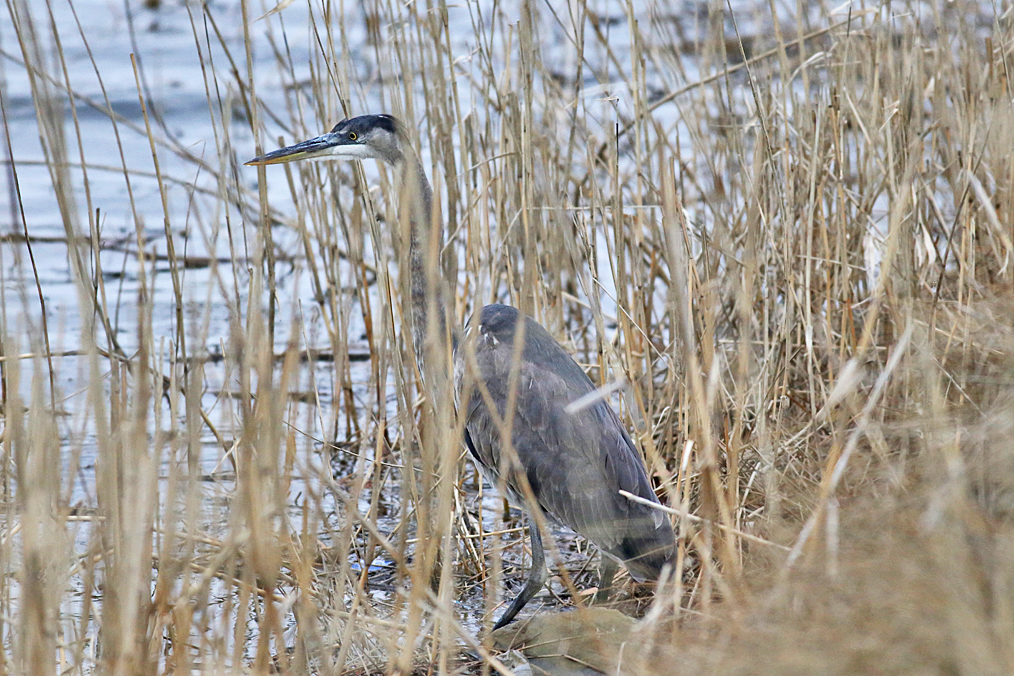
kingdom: Animalia
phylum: Chordata
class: Aves
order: Pelecaniformes
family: Ardeidae
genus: Ardea
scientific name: Ardea herodias
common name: Great blue heron
